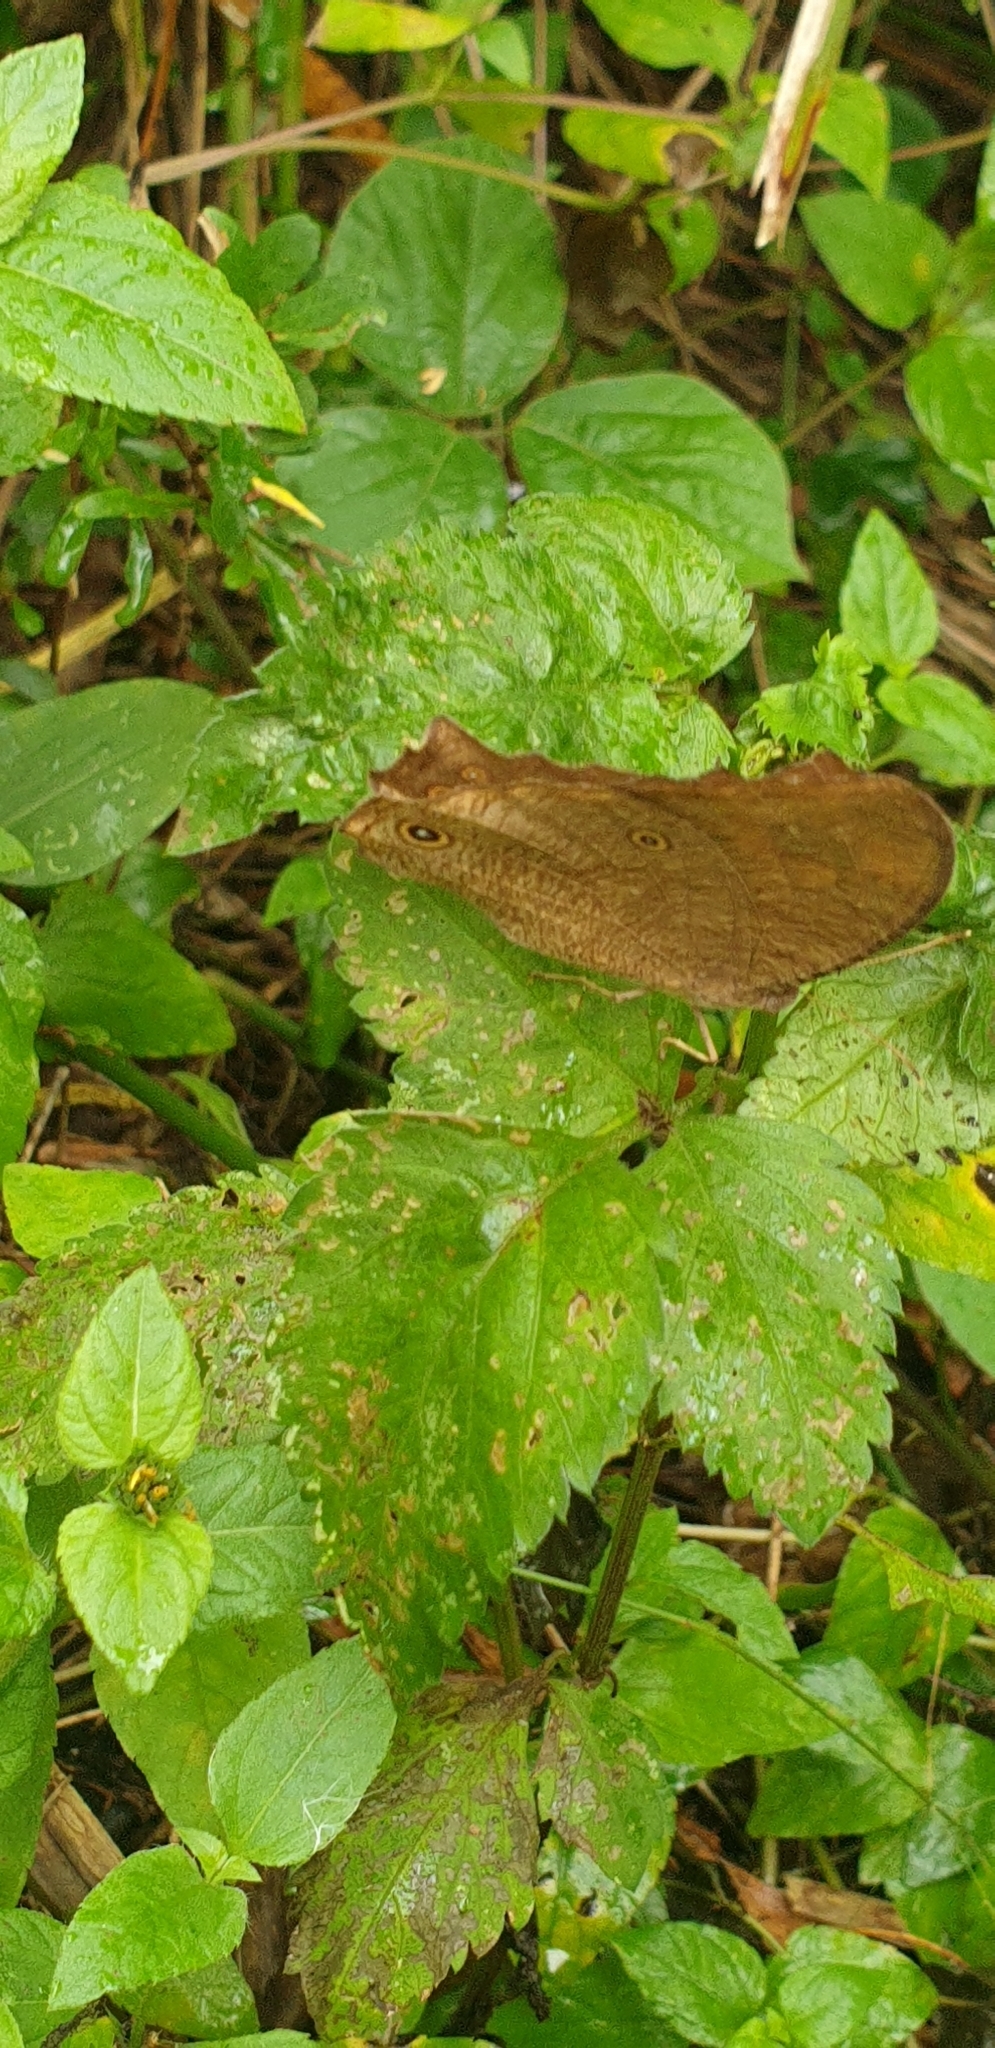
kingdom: Animalia
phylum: Arthropoda
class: Insecta
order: Lepidoptera
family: Nymphalidae
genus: Melanitis
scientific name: Melanitis leda
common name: Twilight brown
